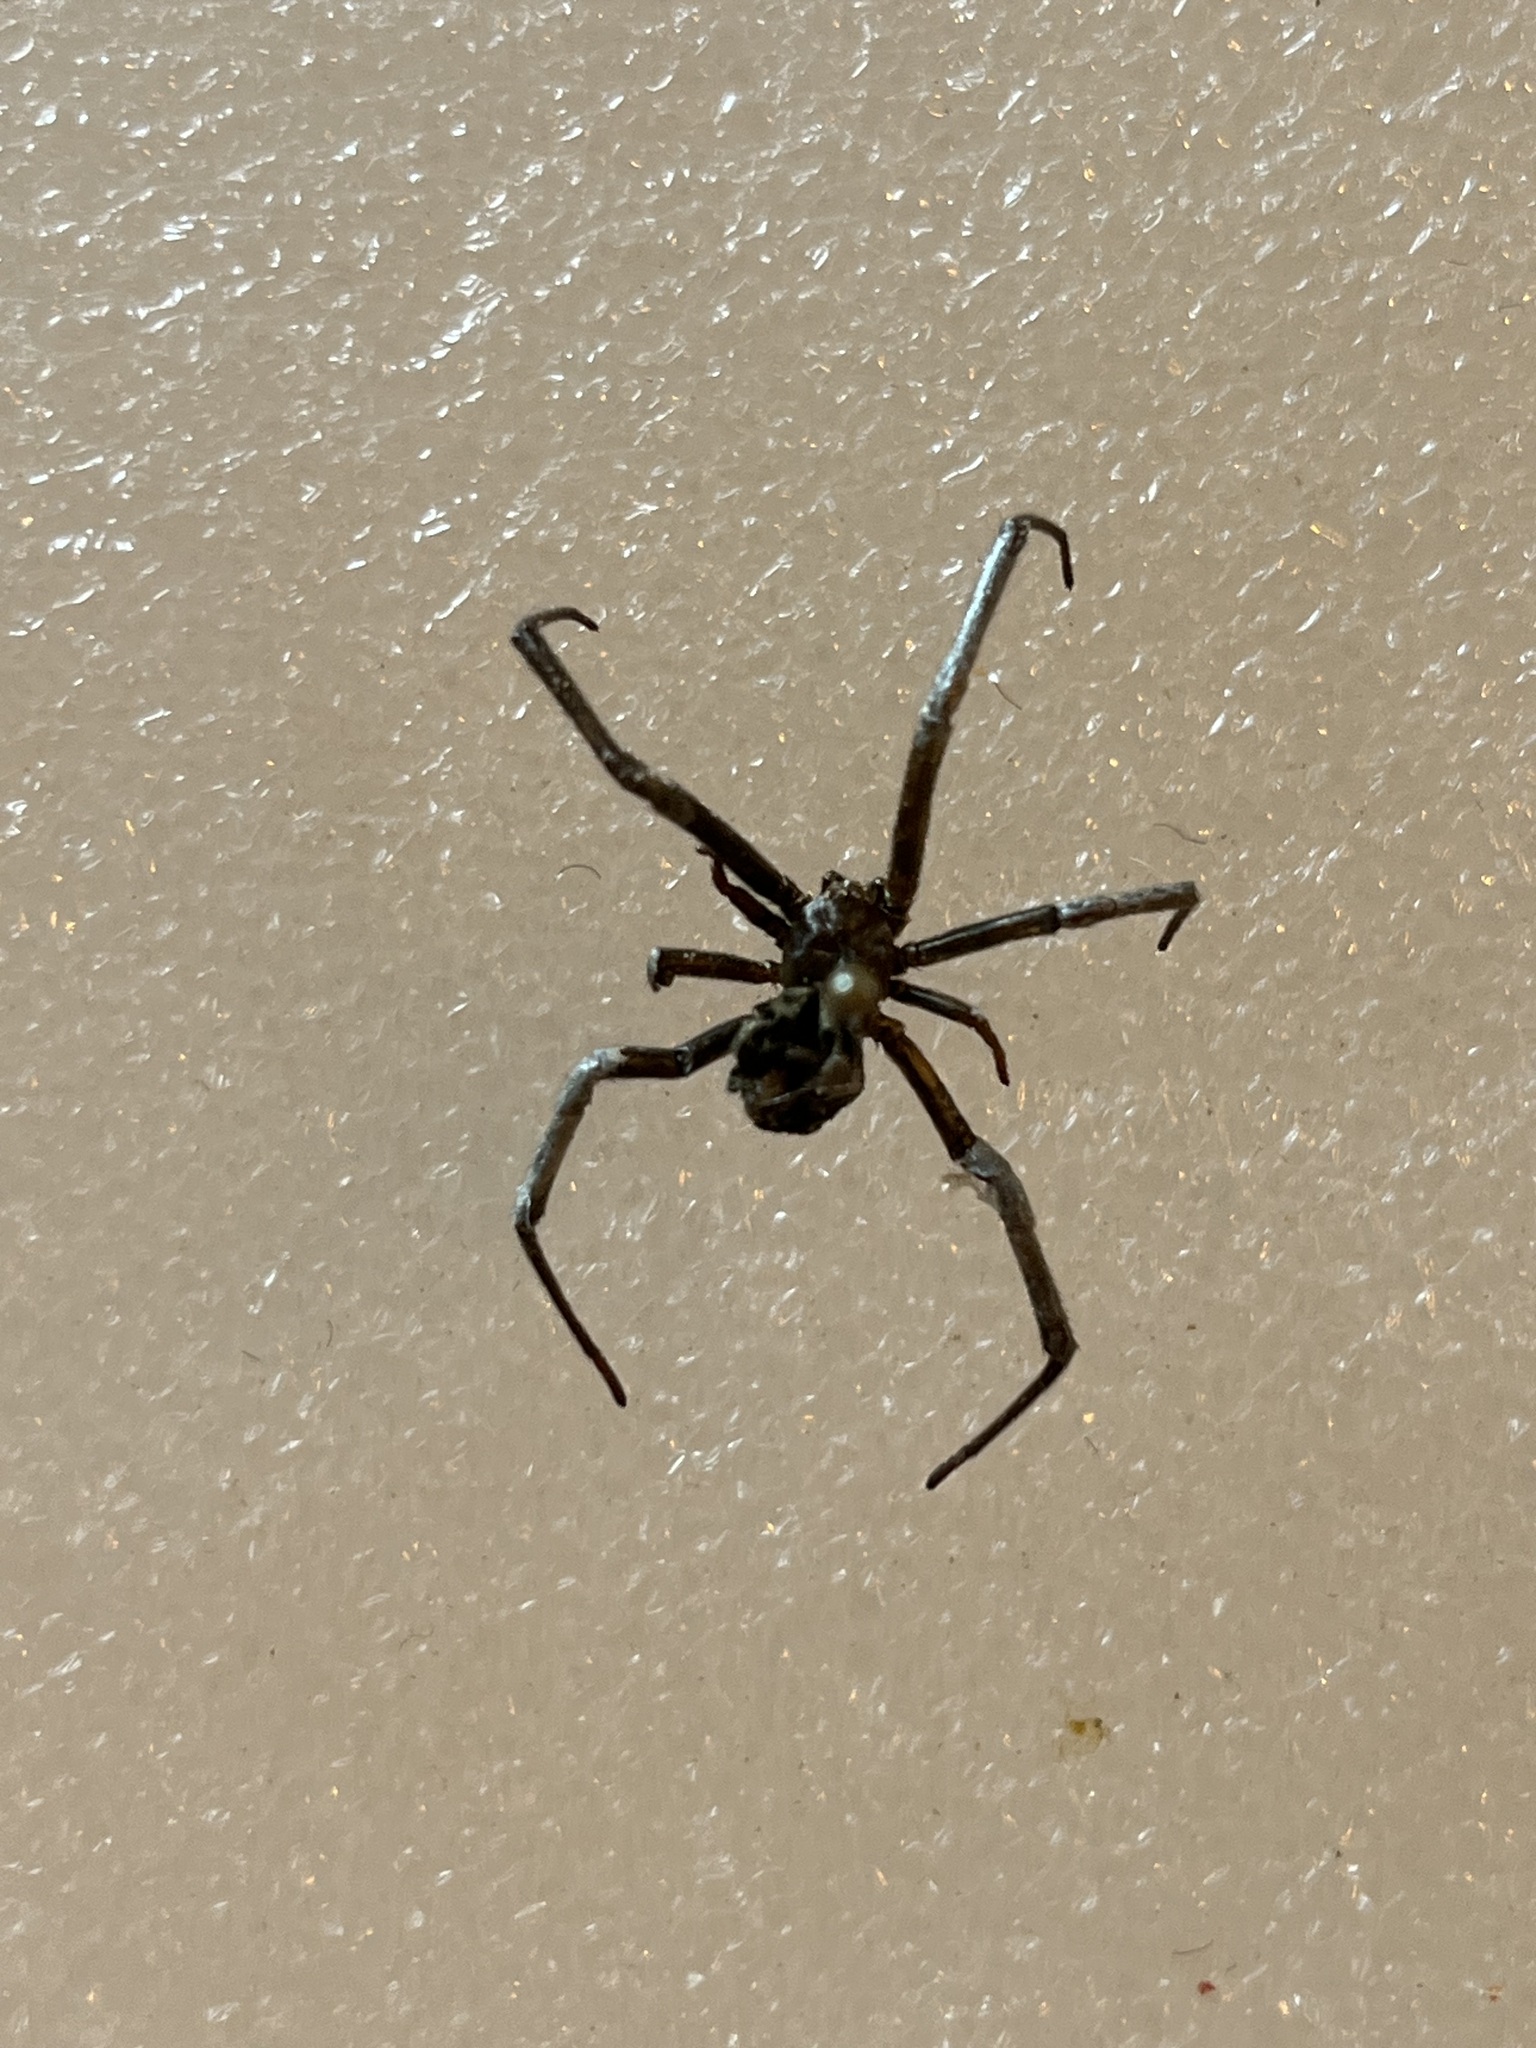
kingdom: Animalia
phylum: Arthropoda
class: Arachnida
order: Araneae
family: Theridiidae
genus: Latrodectus
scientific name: Latrodectus hesperus
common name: Western black widow
